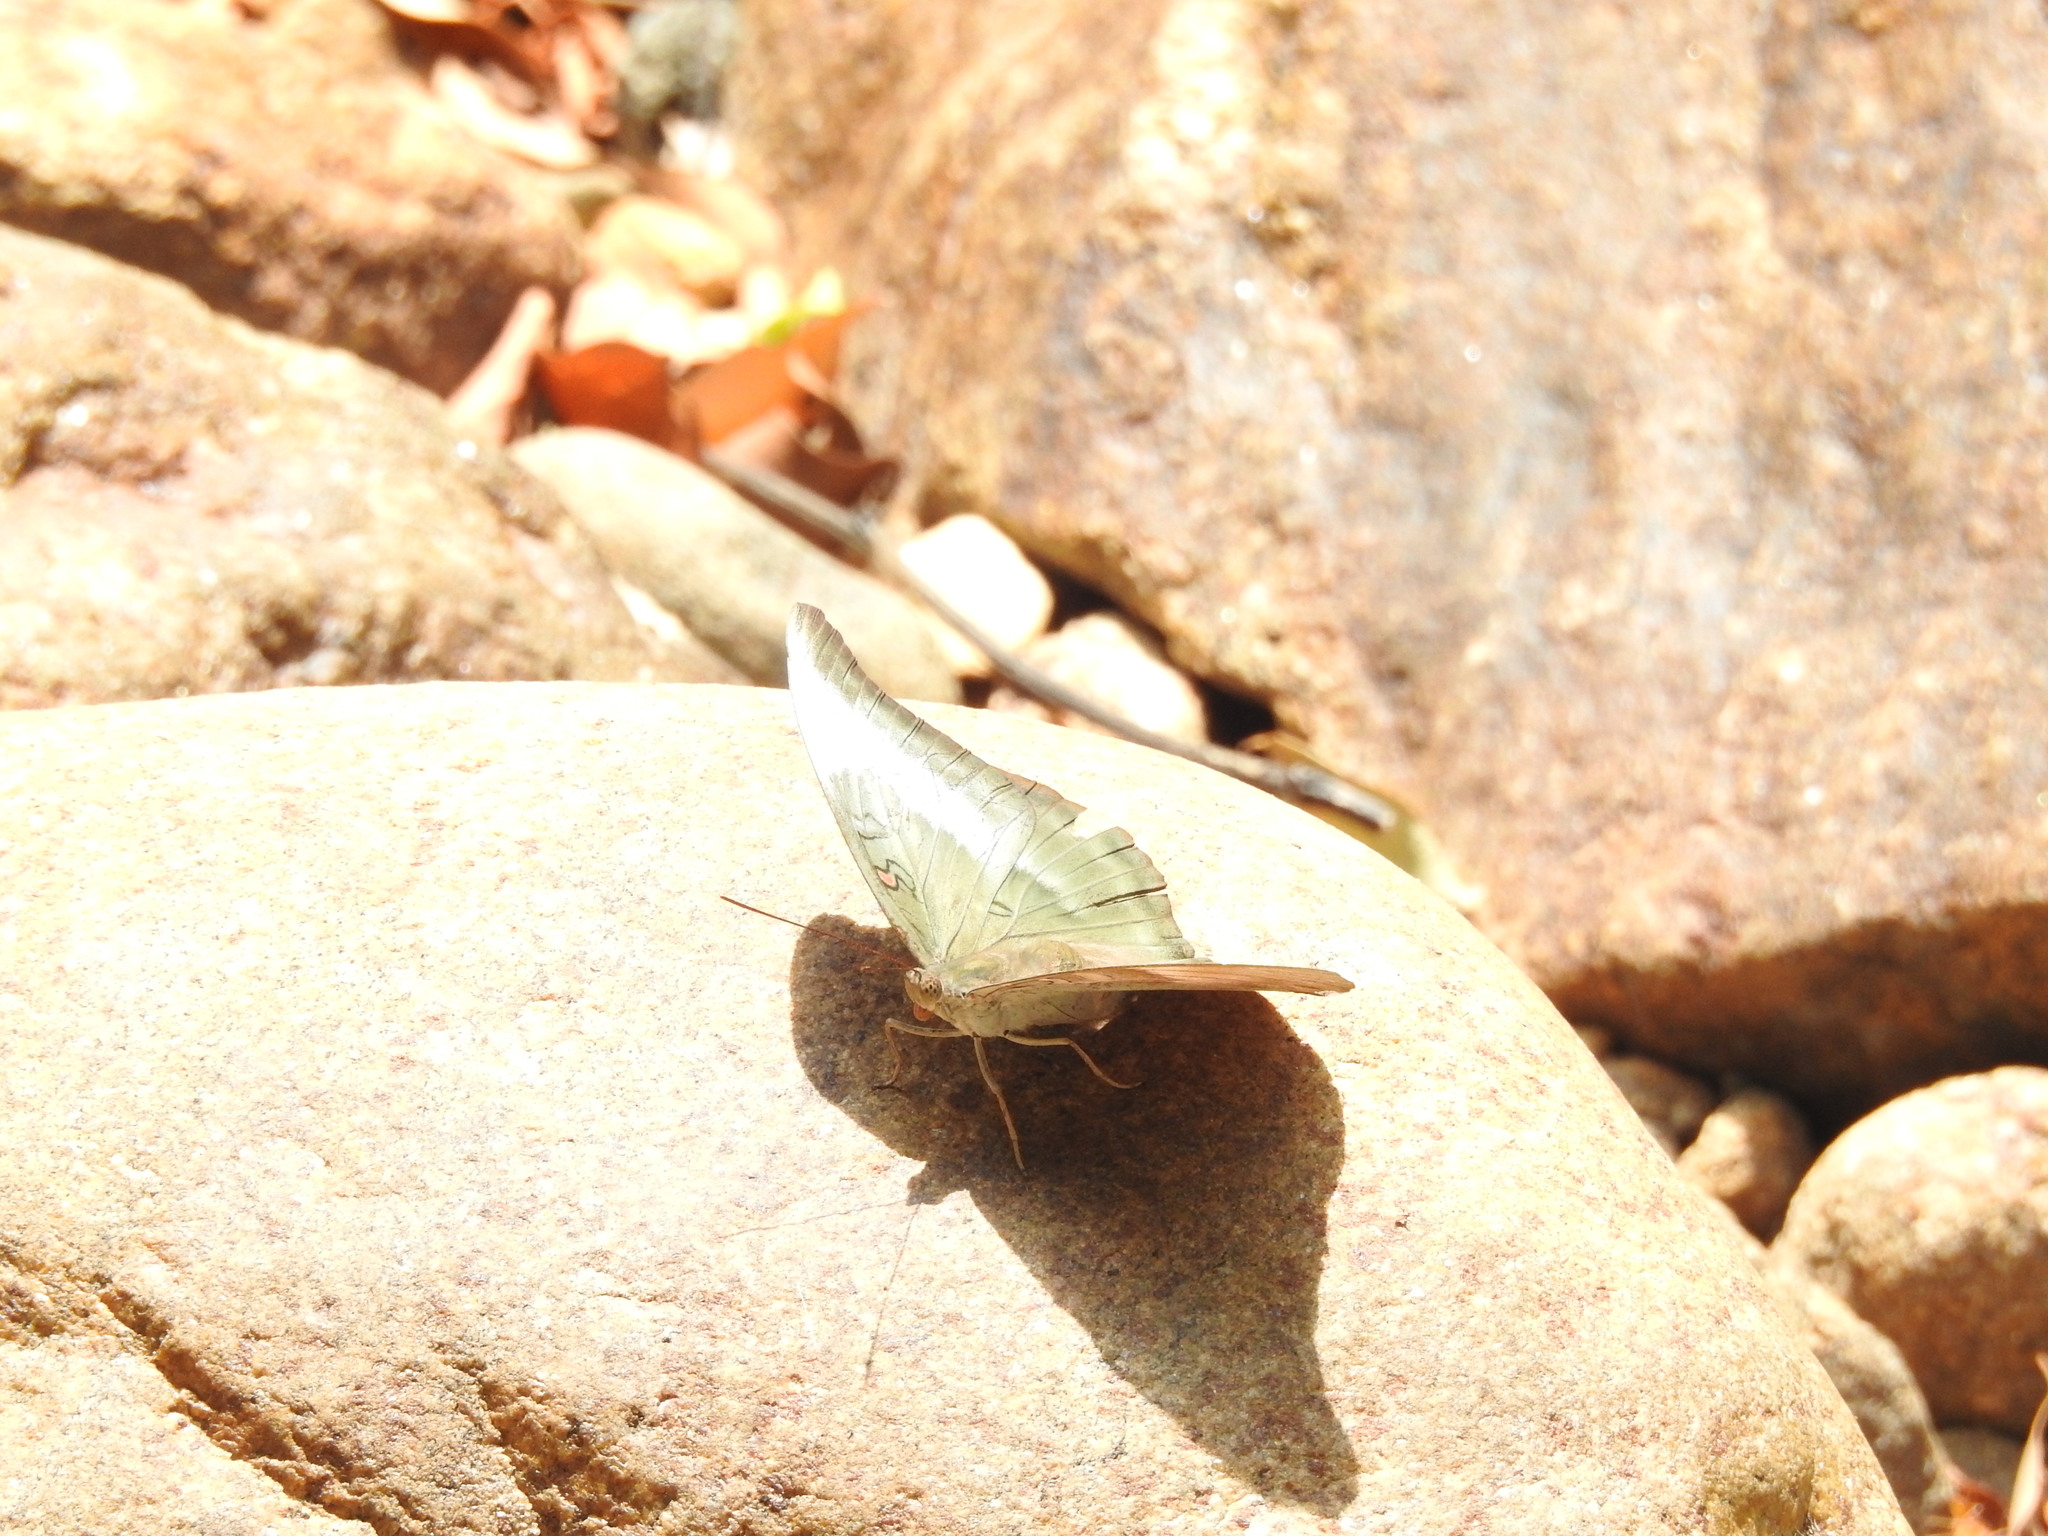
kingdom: Animalia
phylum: Arthropoda
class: Insecta
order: Lepidoptera
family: Nymphalidae
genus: Euthalia
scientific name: Euthalia Dophla evelina
